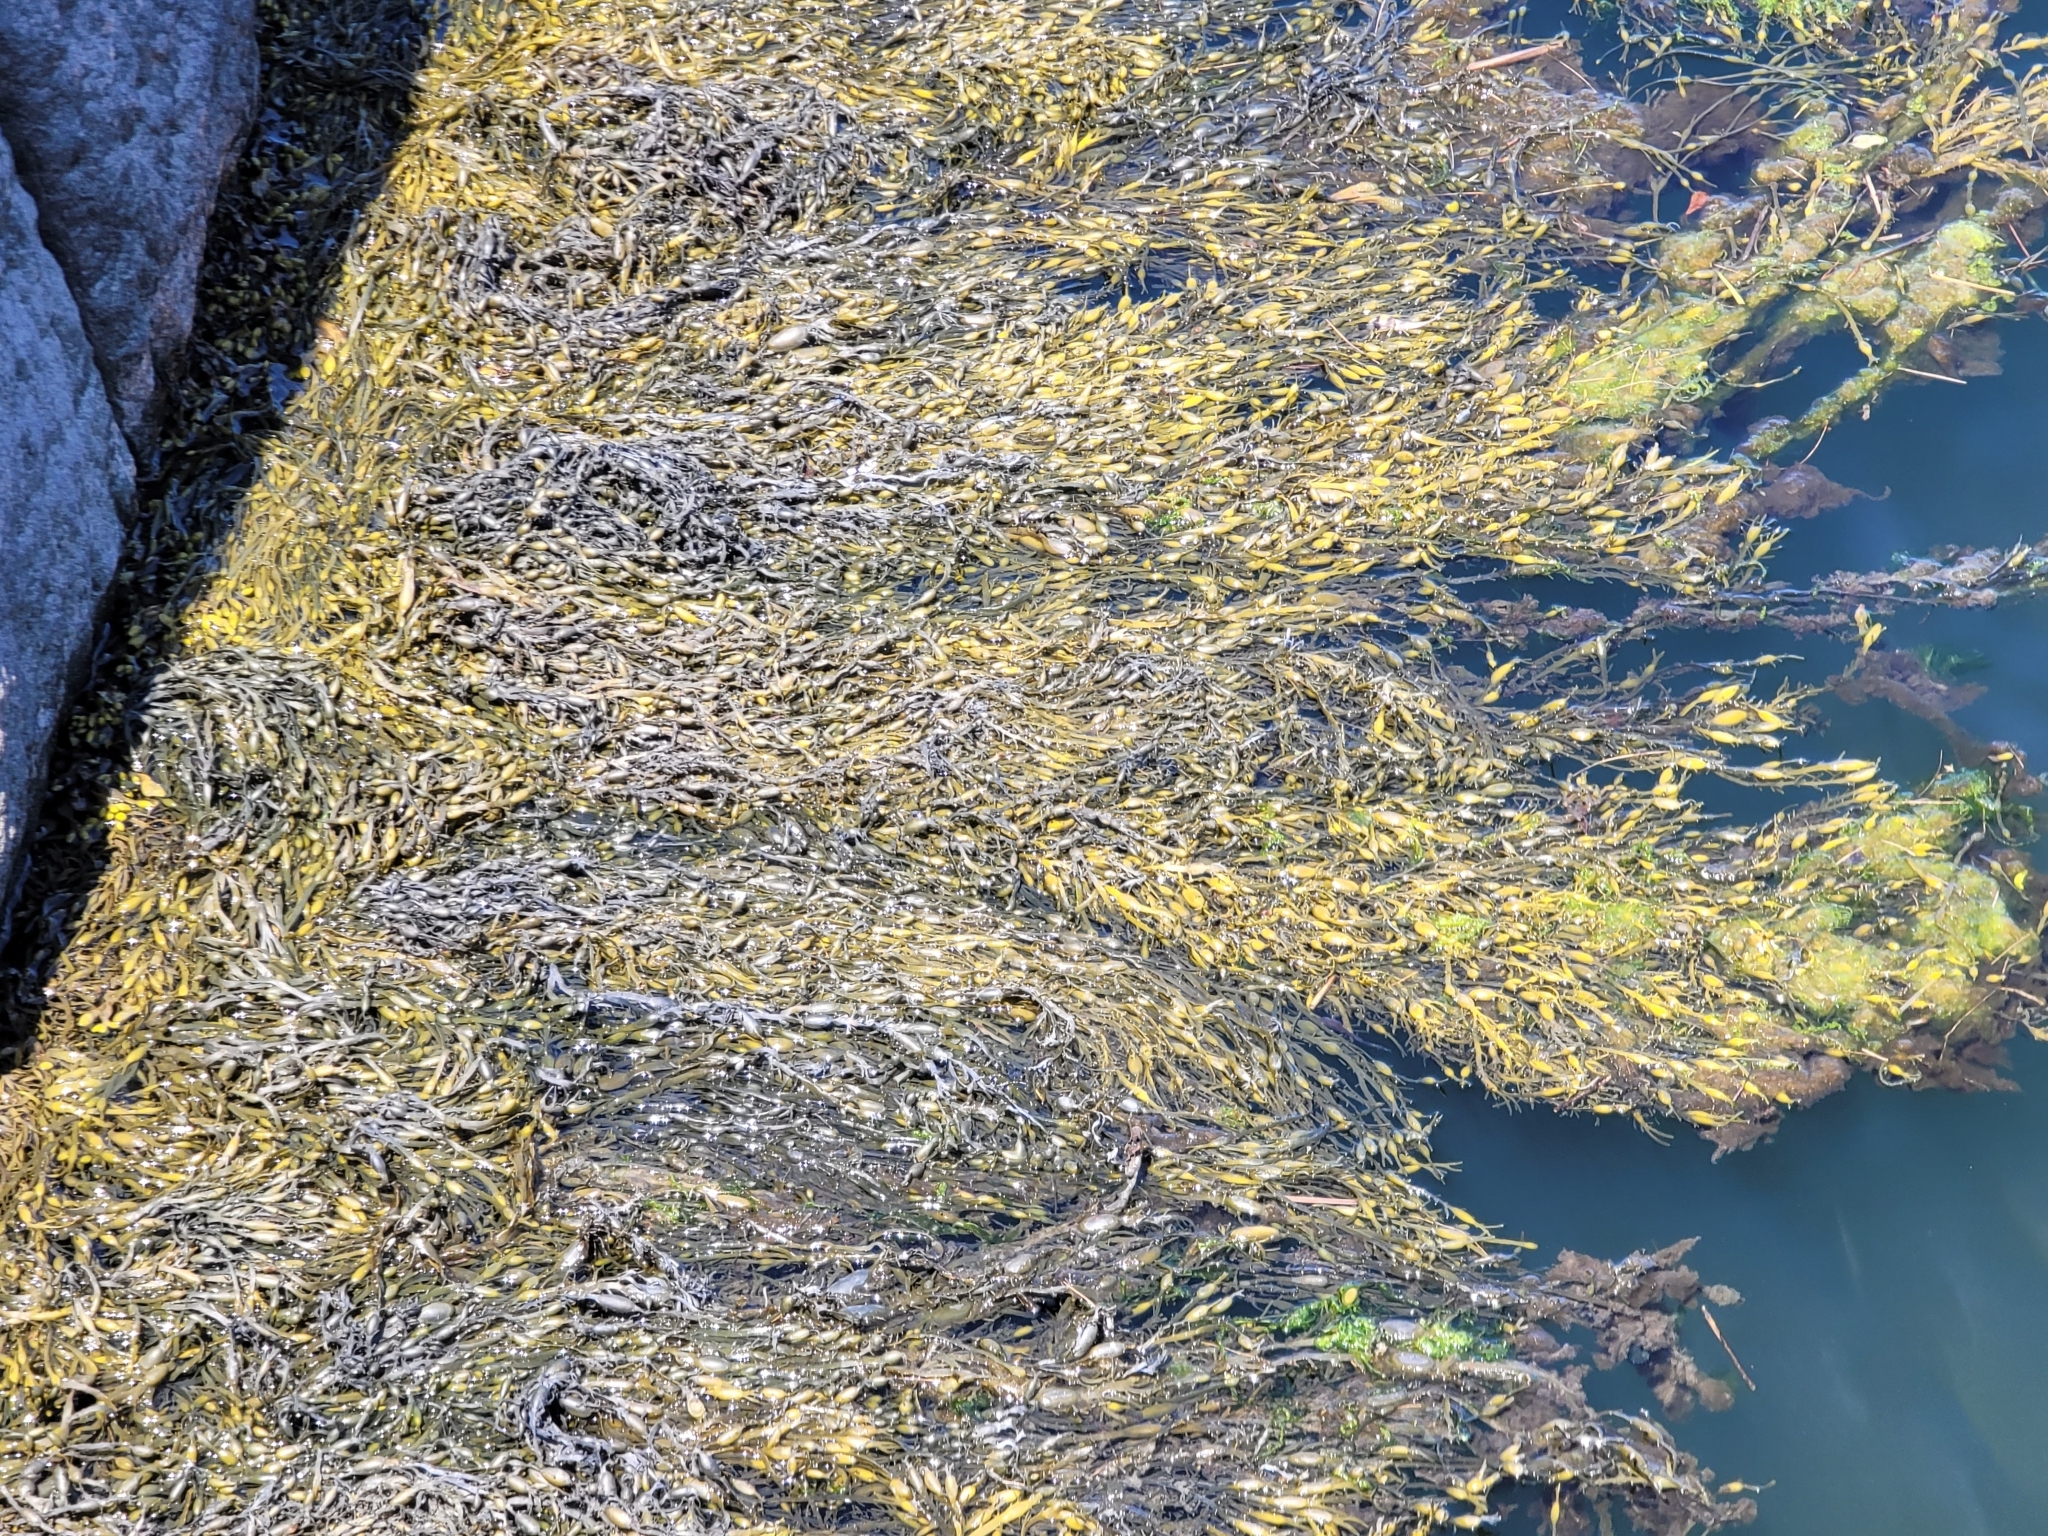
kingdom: Chromista
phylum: Ochrophyta
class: Phaeophyceae
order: Fucales
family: Fucaceae
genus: Ascophyllum
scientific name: Ascophyllum nodosum
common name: Knotted wrack
